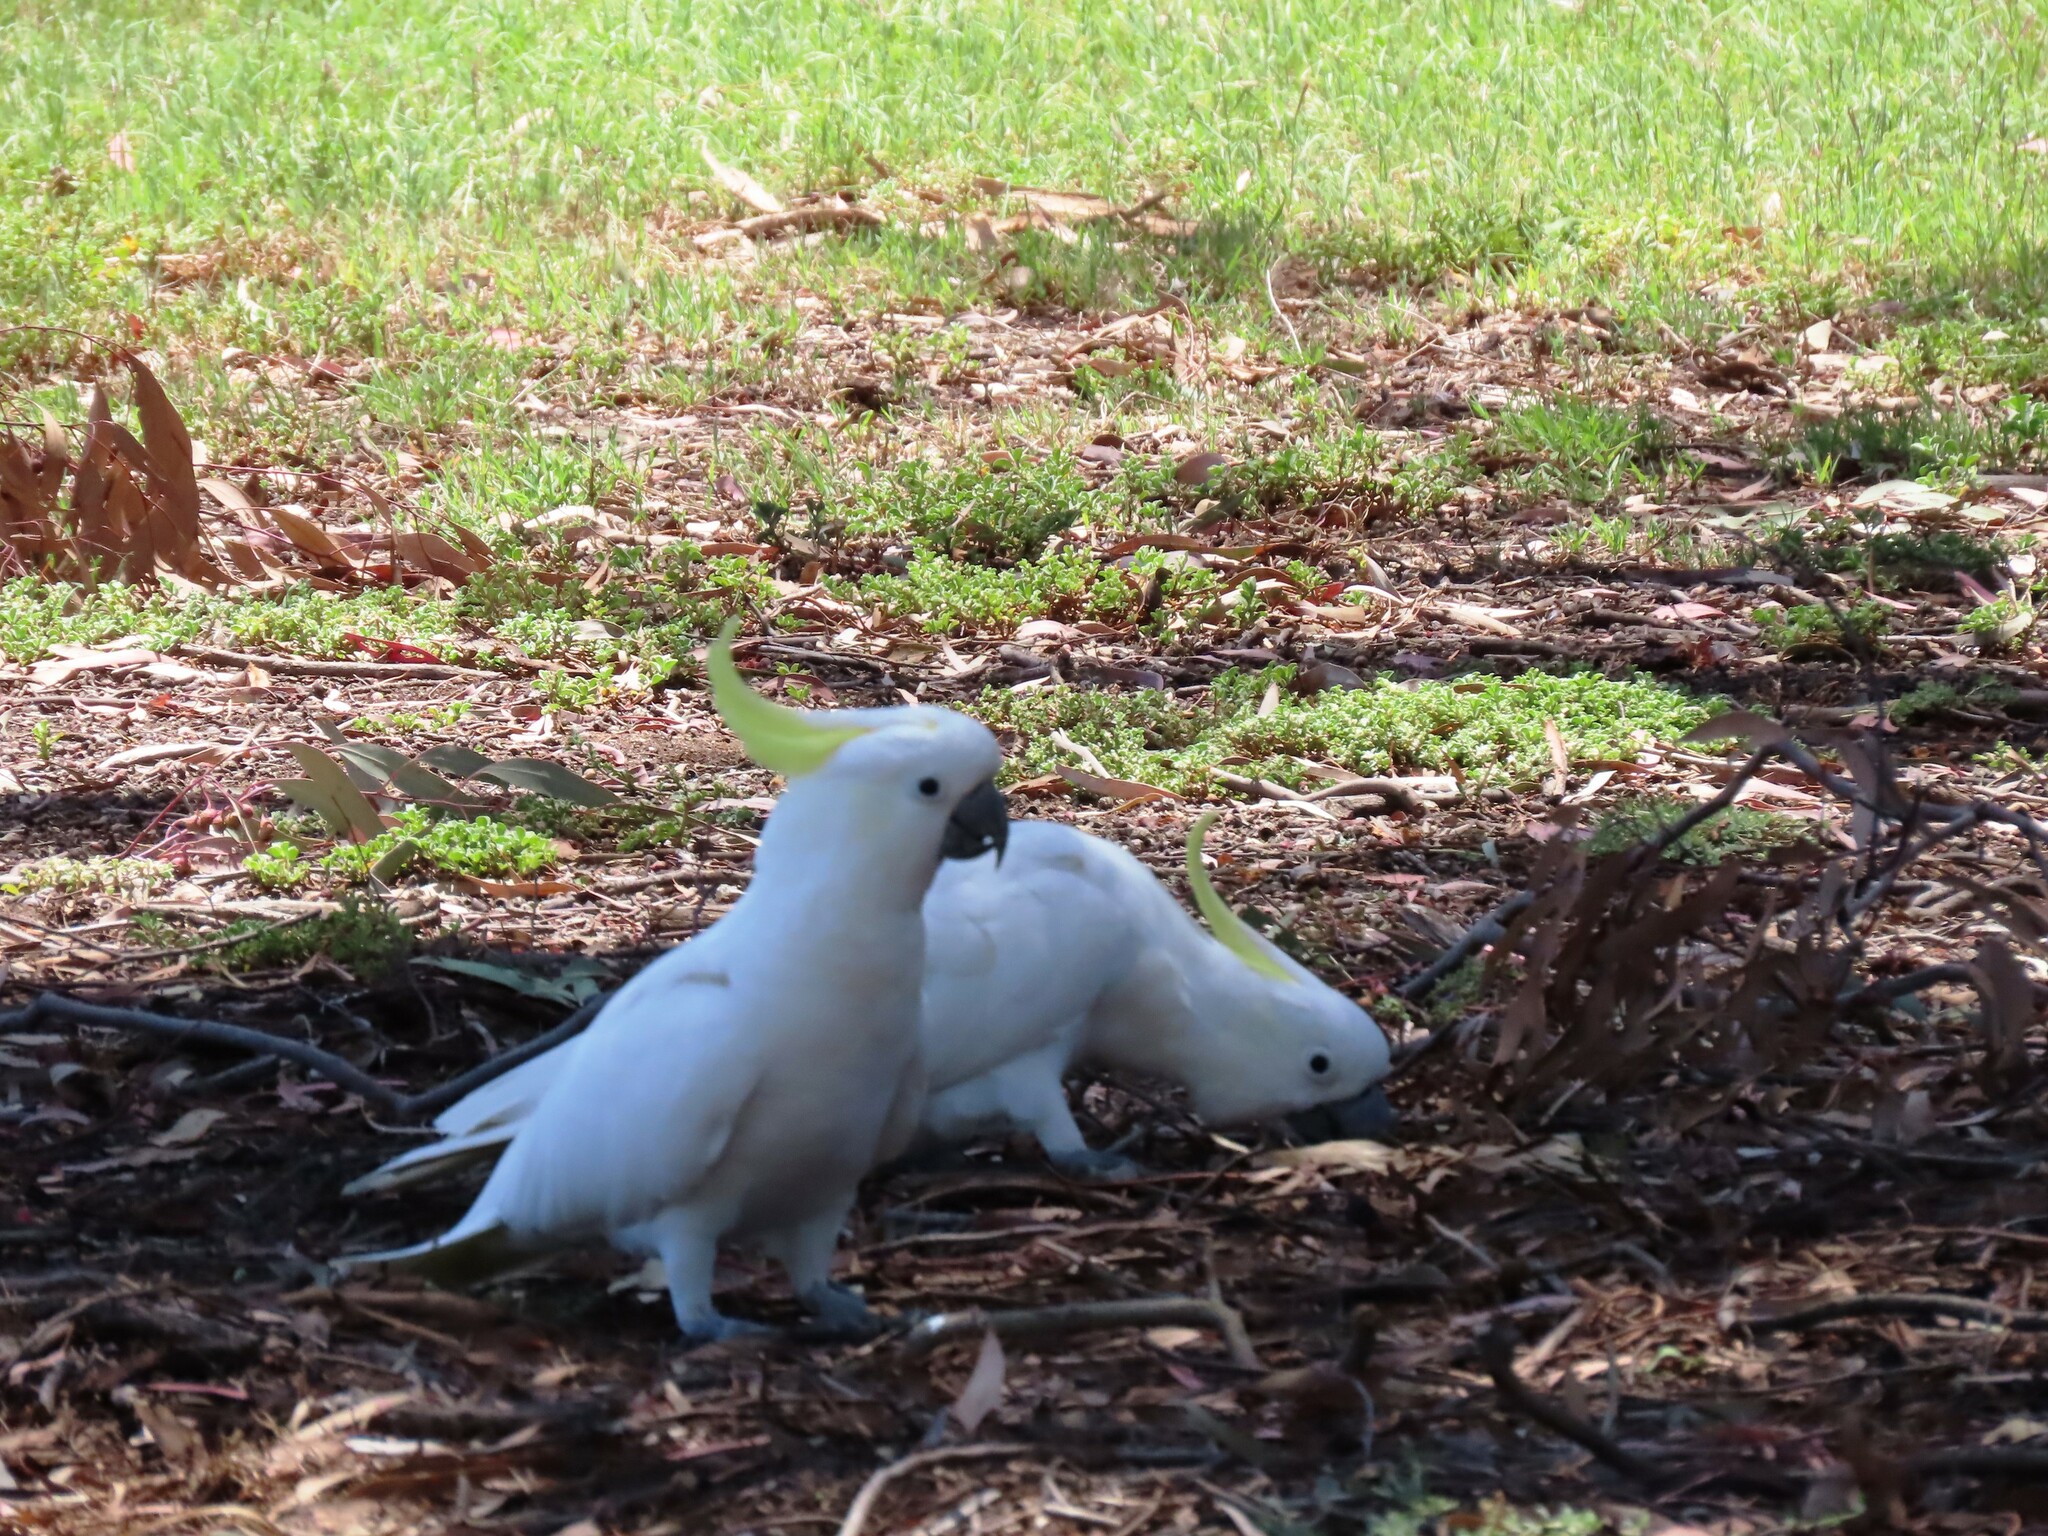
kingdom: Animalia
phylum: Chordata
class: Aves
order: Psittaciformes
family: Psittacidae
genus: Cacatua
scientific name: Cacatua galerita
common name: Sulphur-crested cockatoo
